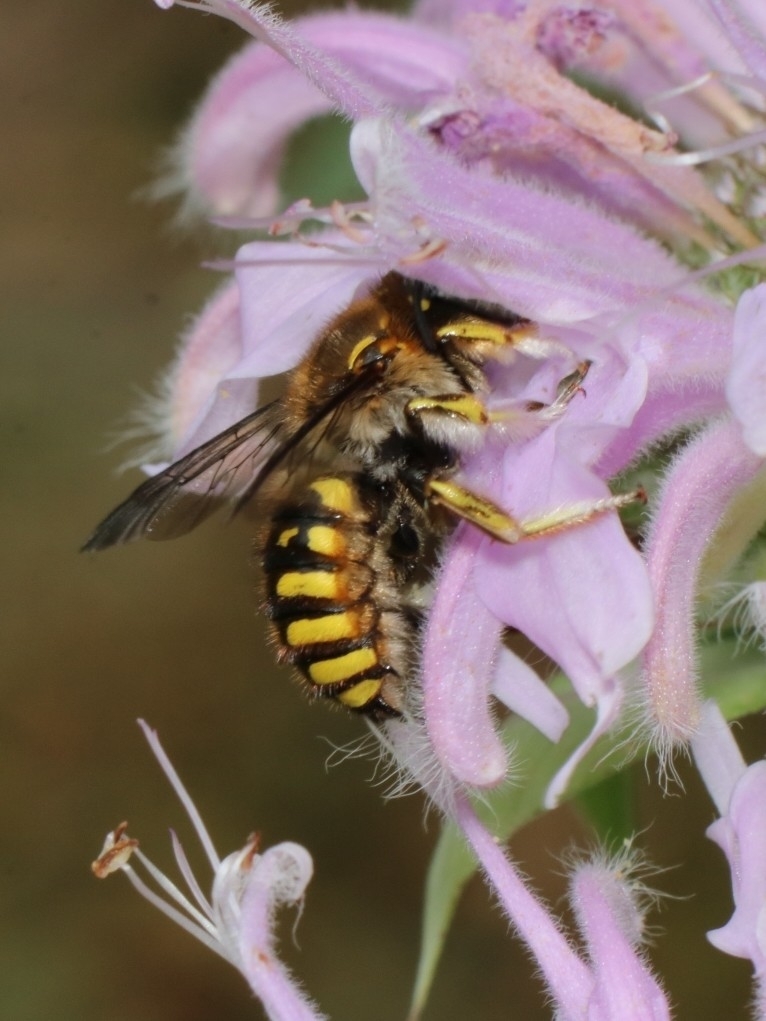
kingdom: Animalia
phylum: Arthropoda
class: Insecta
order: Hymenoptera
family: Megachilidae
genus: Anthidium
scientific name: Anthidium manicatum
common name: Wool carder bee
